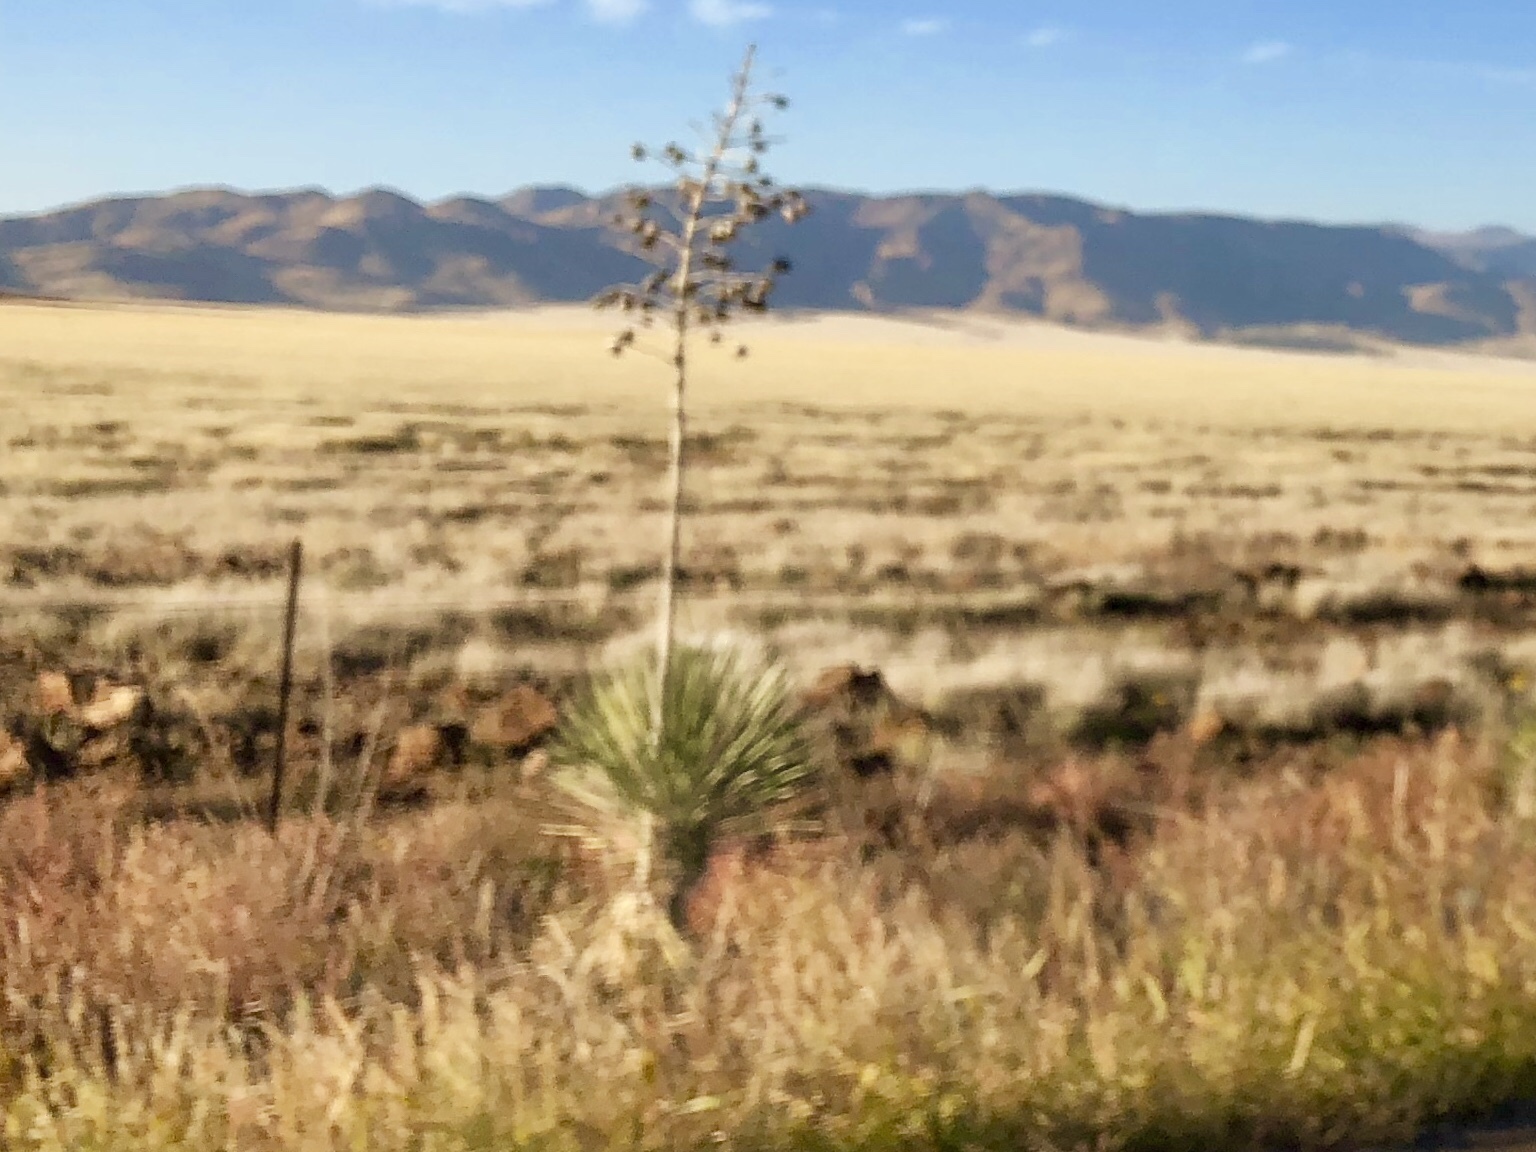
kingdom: Plantae
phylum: Tracheophyta
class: Liliopsida
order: Asparagales
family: Asparagaceae
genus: Yucca
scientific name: Yucca elata
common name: Palmella
